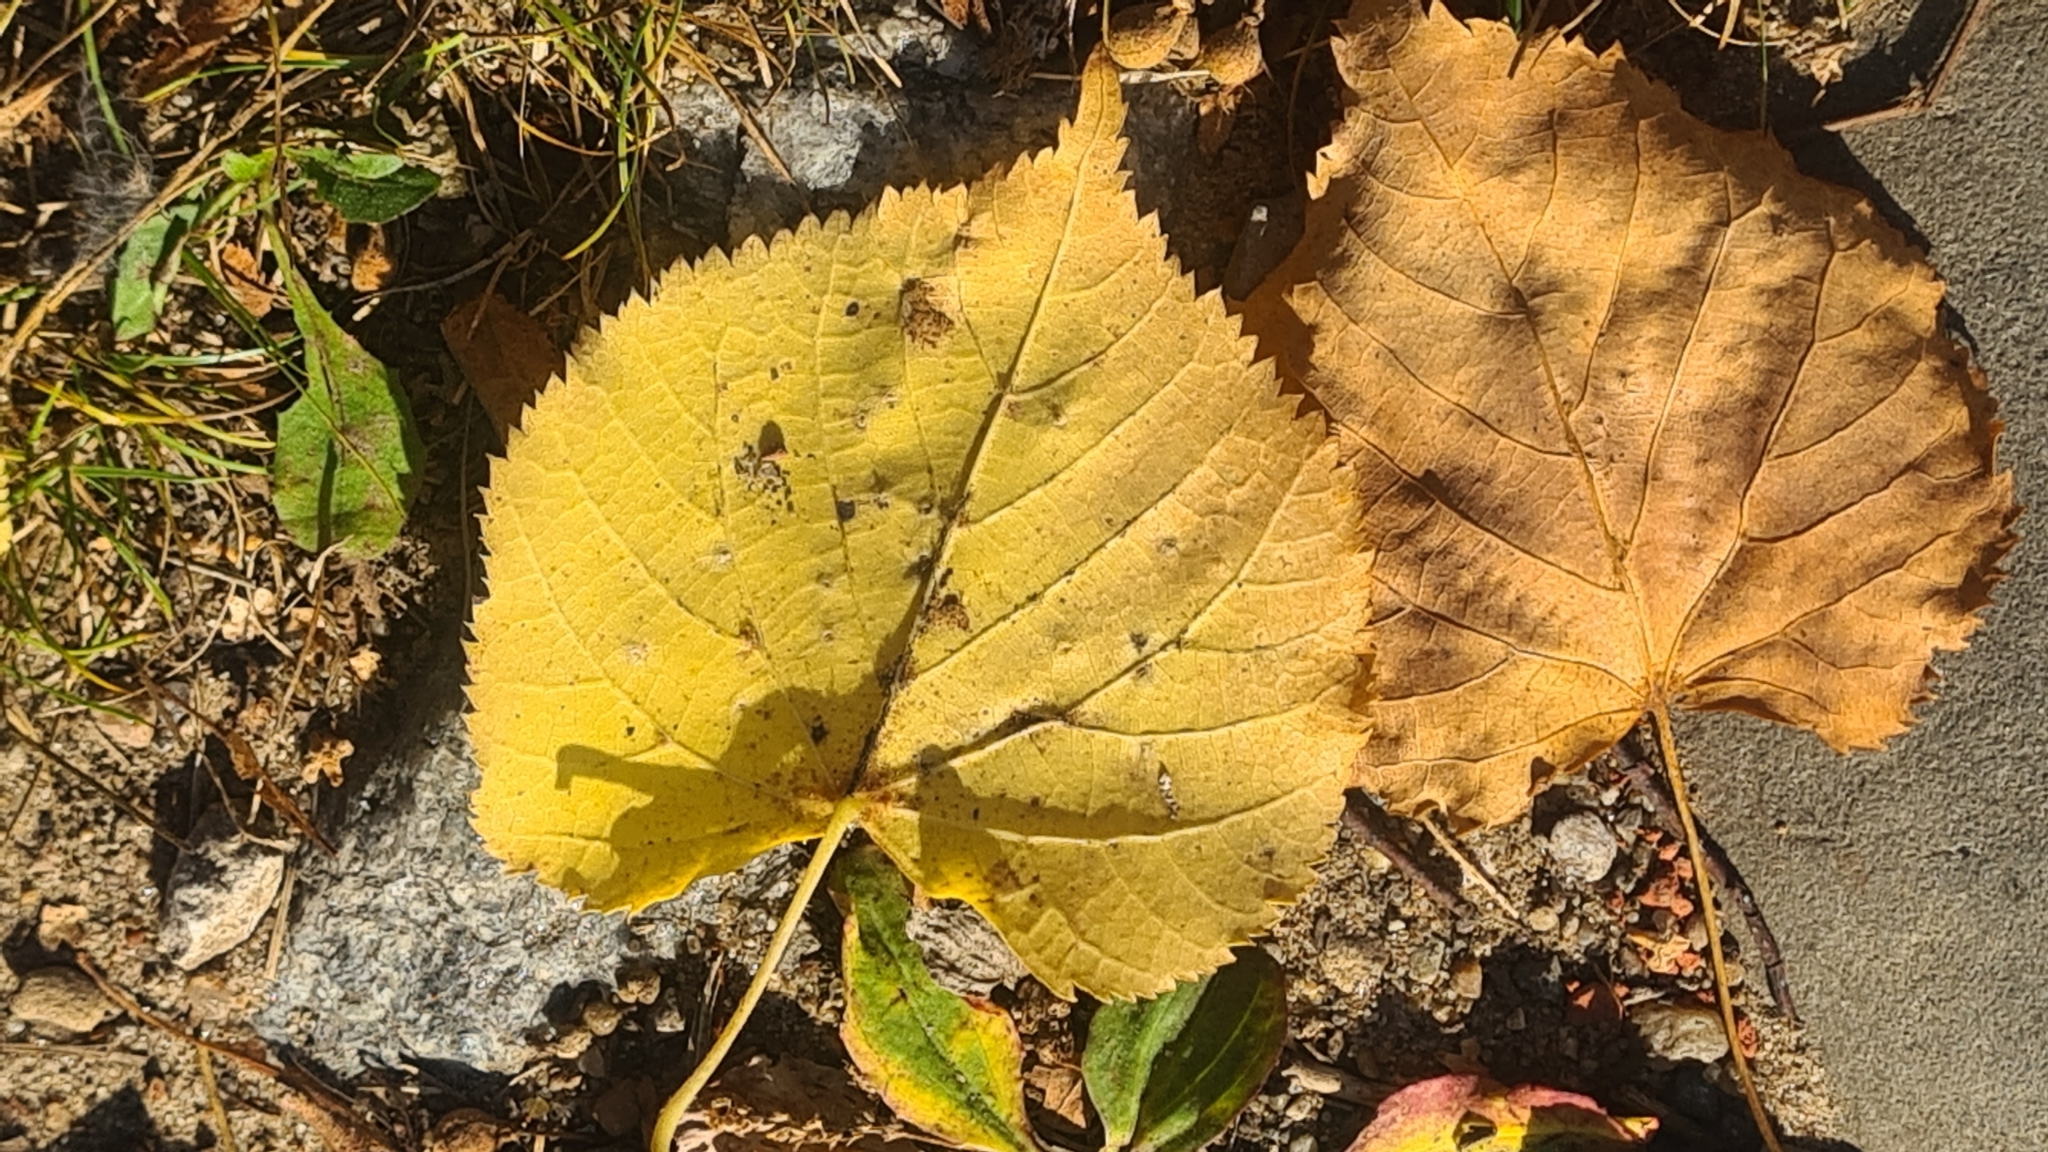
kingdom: Animalia
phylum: Arthropoda
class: Arachnida
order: Trombidiformes
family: Eriophyidae
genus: Eriophyes
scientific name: Eriophyes tiliae
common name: Red nail gall mite
